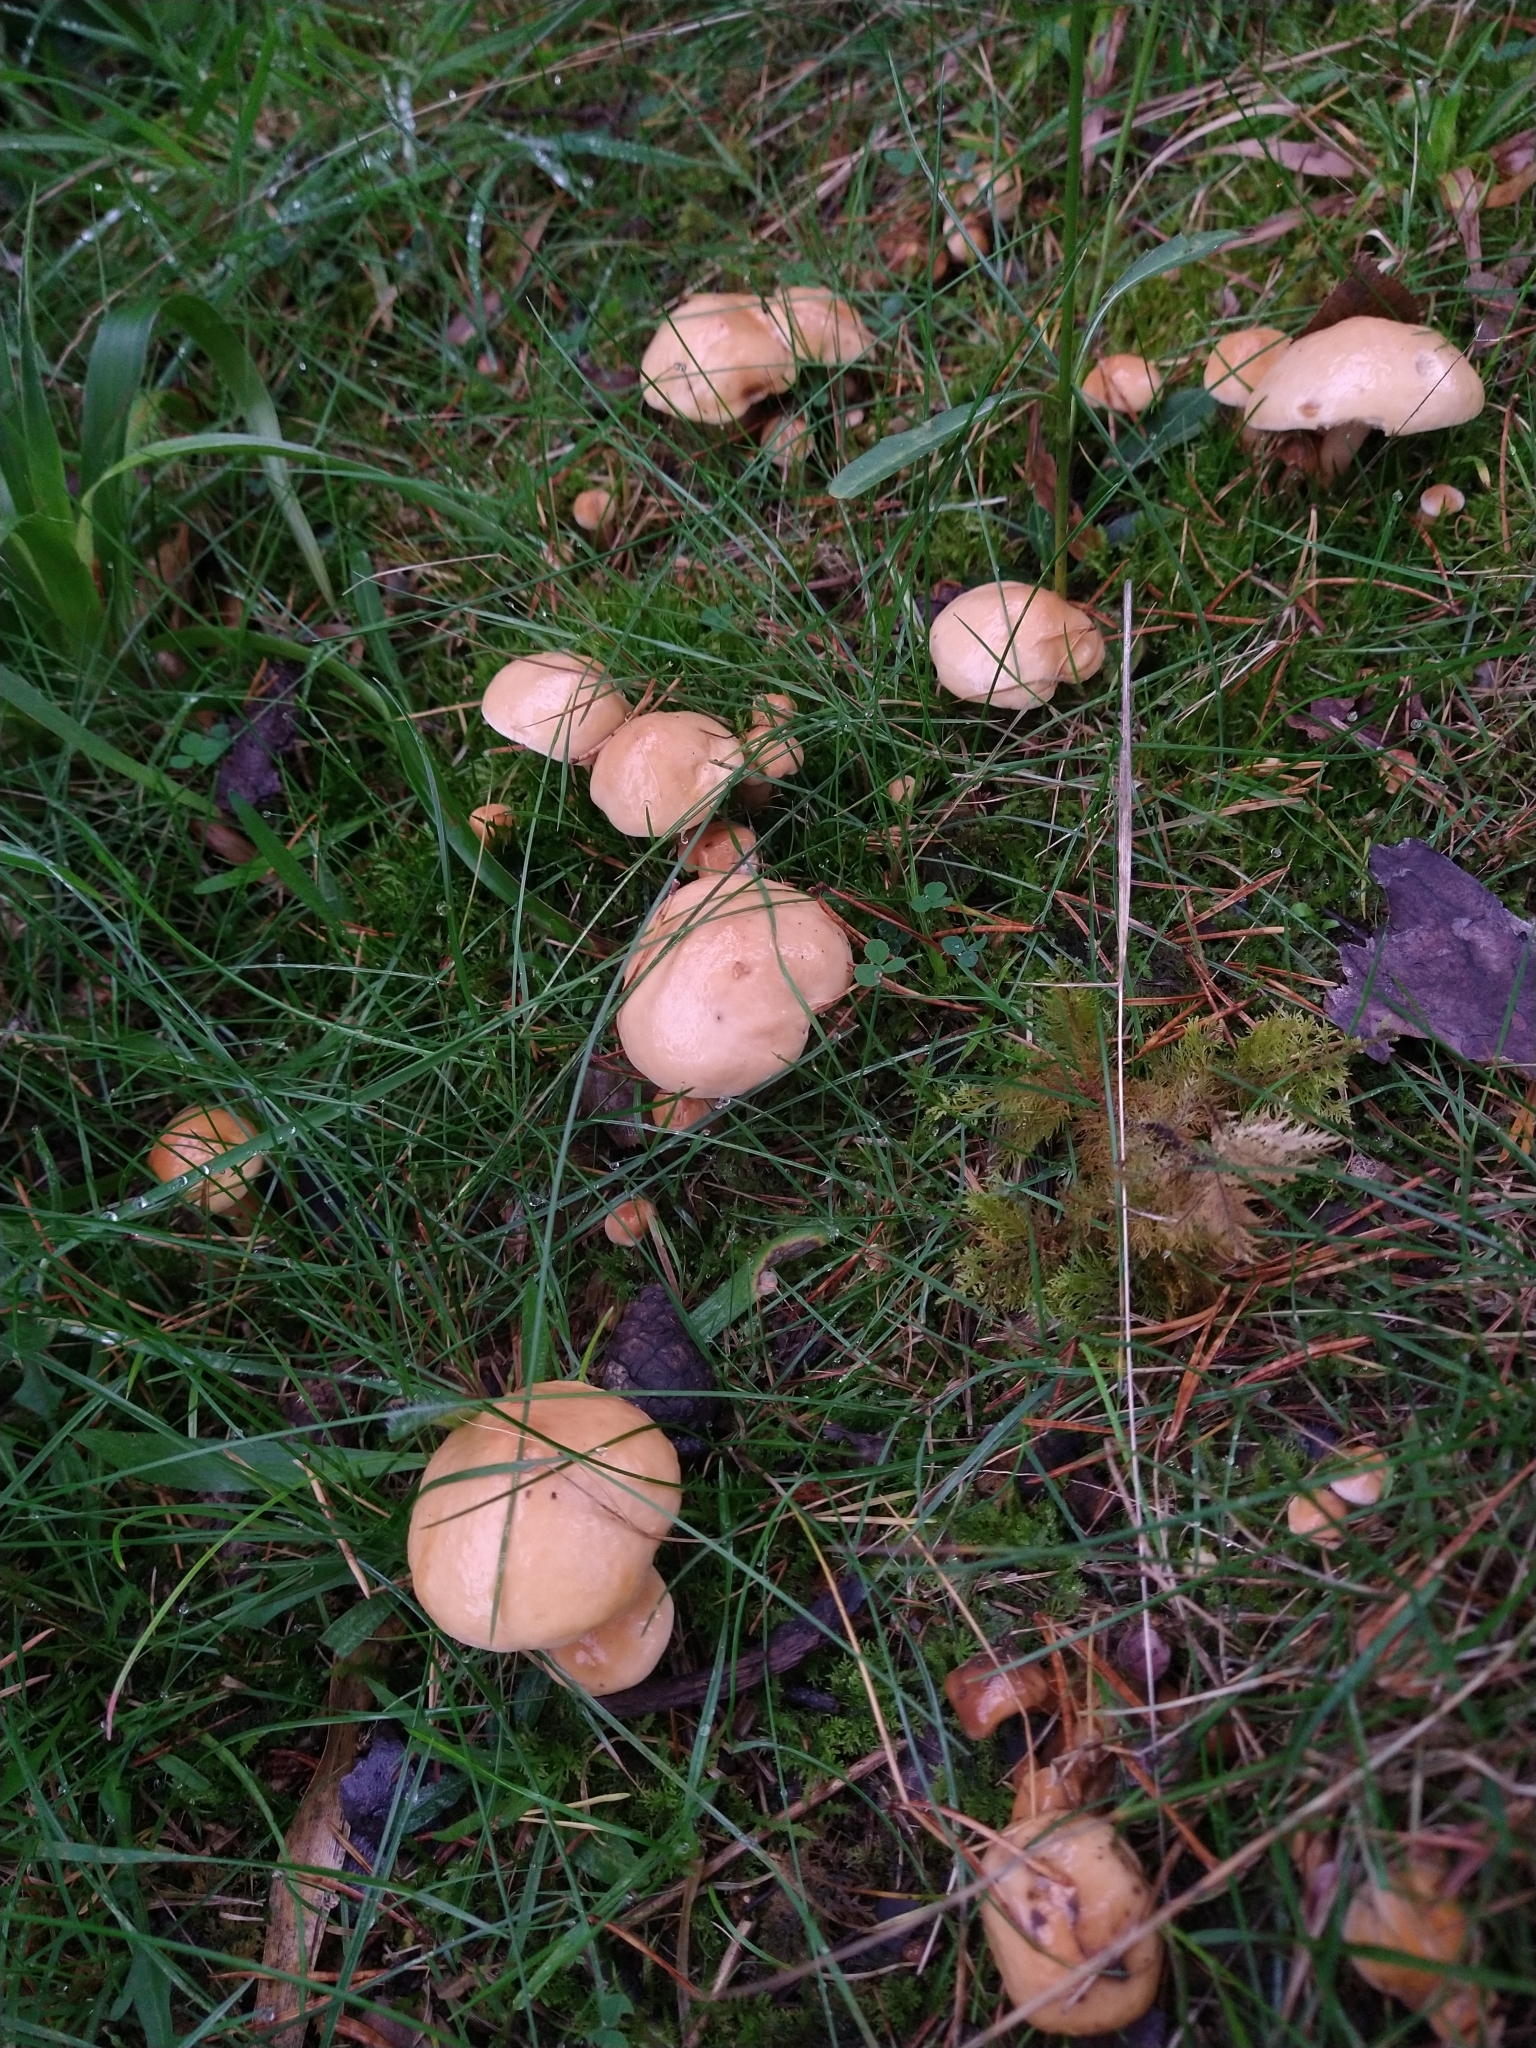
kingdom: Fungi
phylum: Basidiomycota
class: Agaricomycetes
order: Boletales
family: Suillaceae
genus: Suillus
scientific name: Suillus bovinus
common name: Bovine bolete
